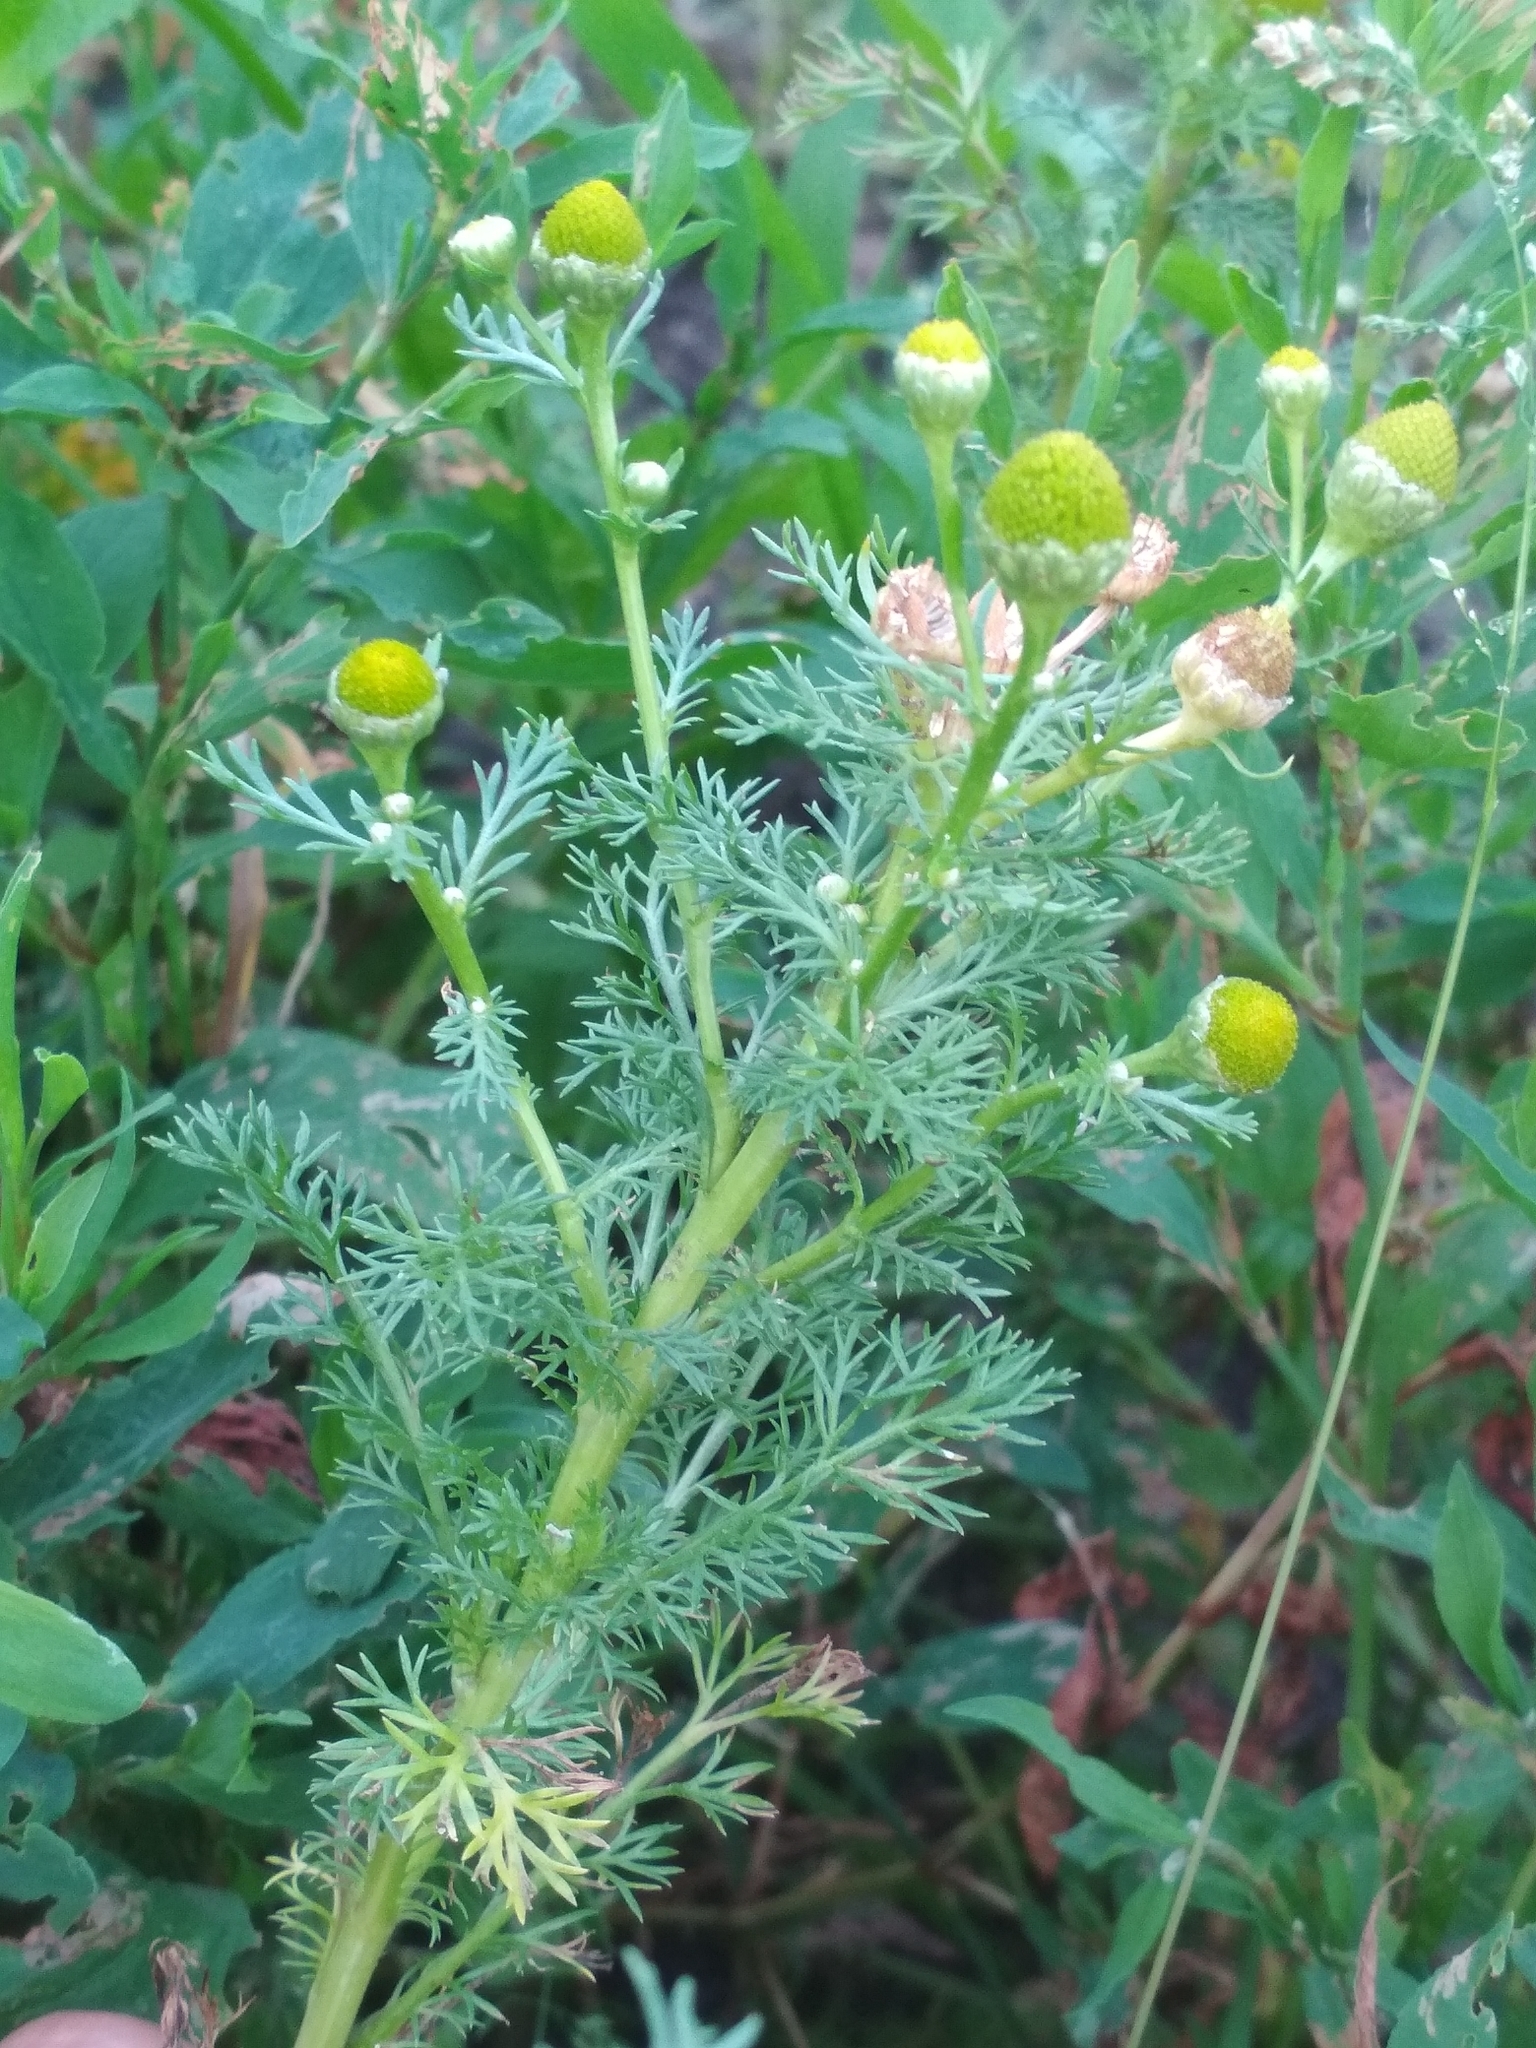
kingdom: Plantae
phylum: Tracheophyta
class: Magnoliopsida
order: Asterales
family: Asteraceae
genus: Matricaria
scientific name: Matricaria discoidea
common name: Disc mayweed
